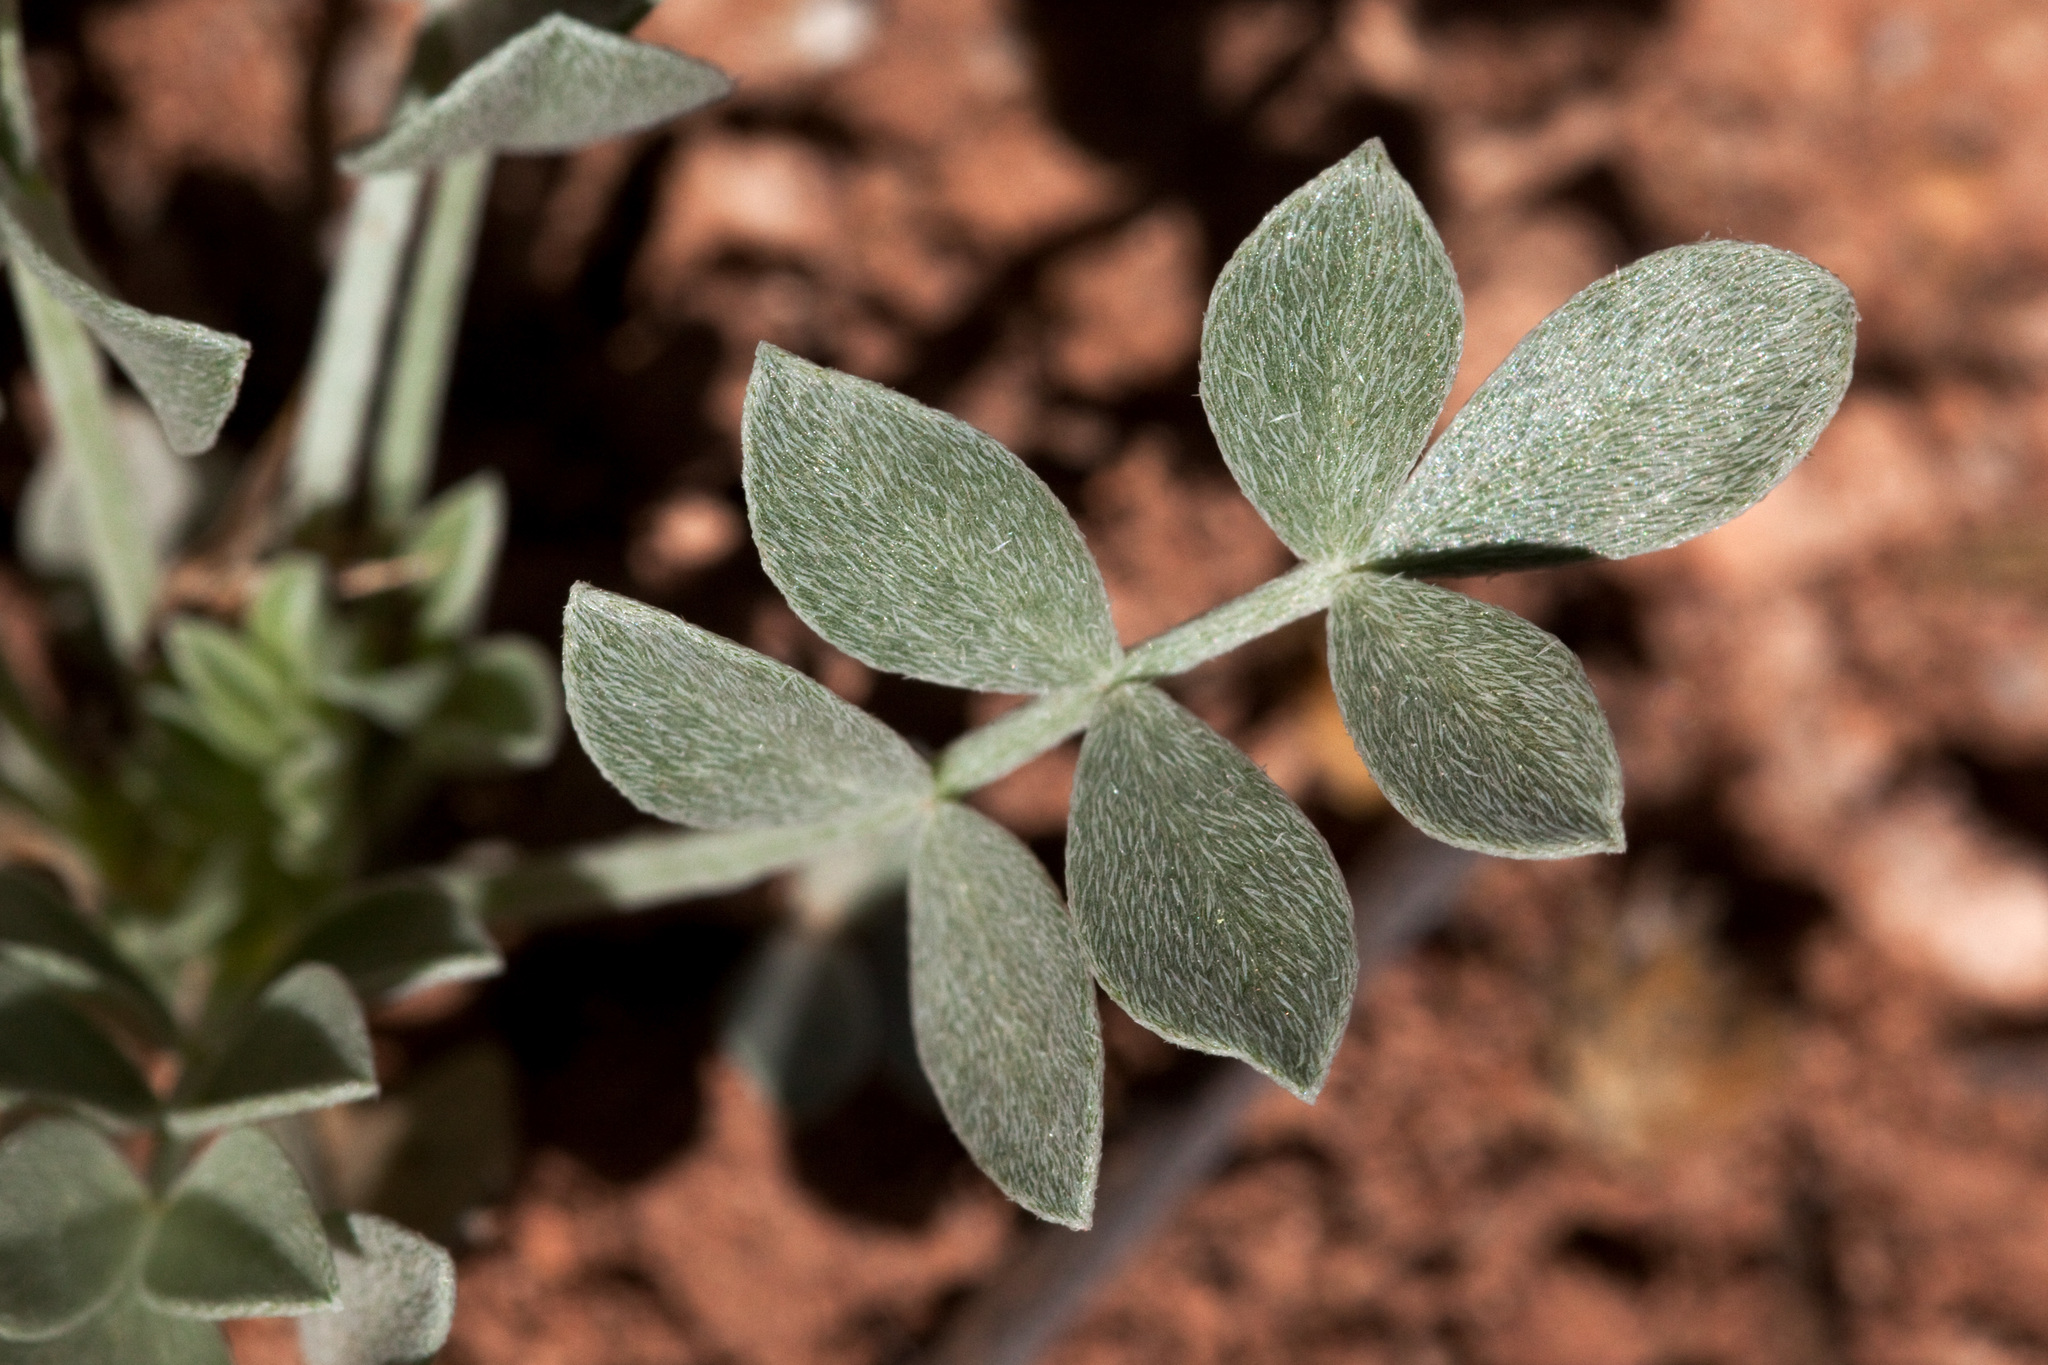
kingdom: Plantae
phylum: Tracheophyta
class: Magnoliopsida
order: Fabales
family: Fabaceae
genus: Astragalus
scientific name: Astragalus calycosus
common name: King's milkvetch
